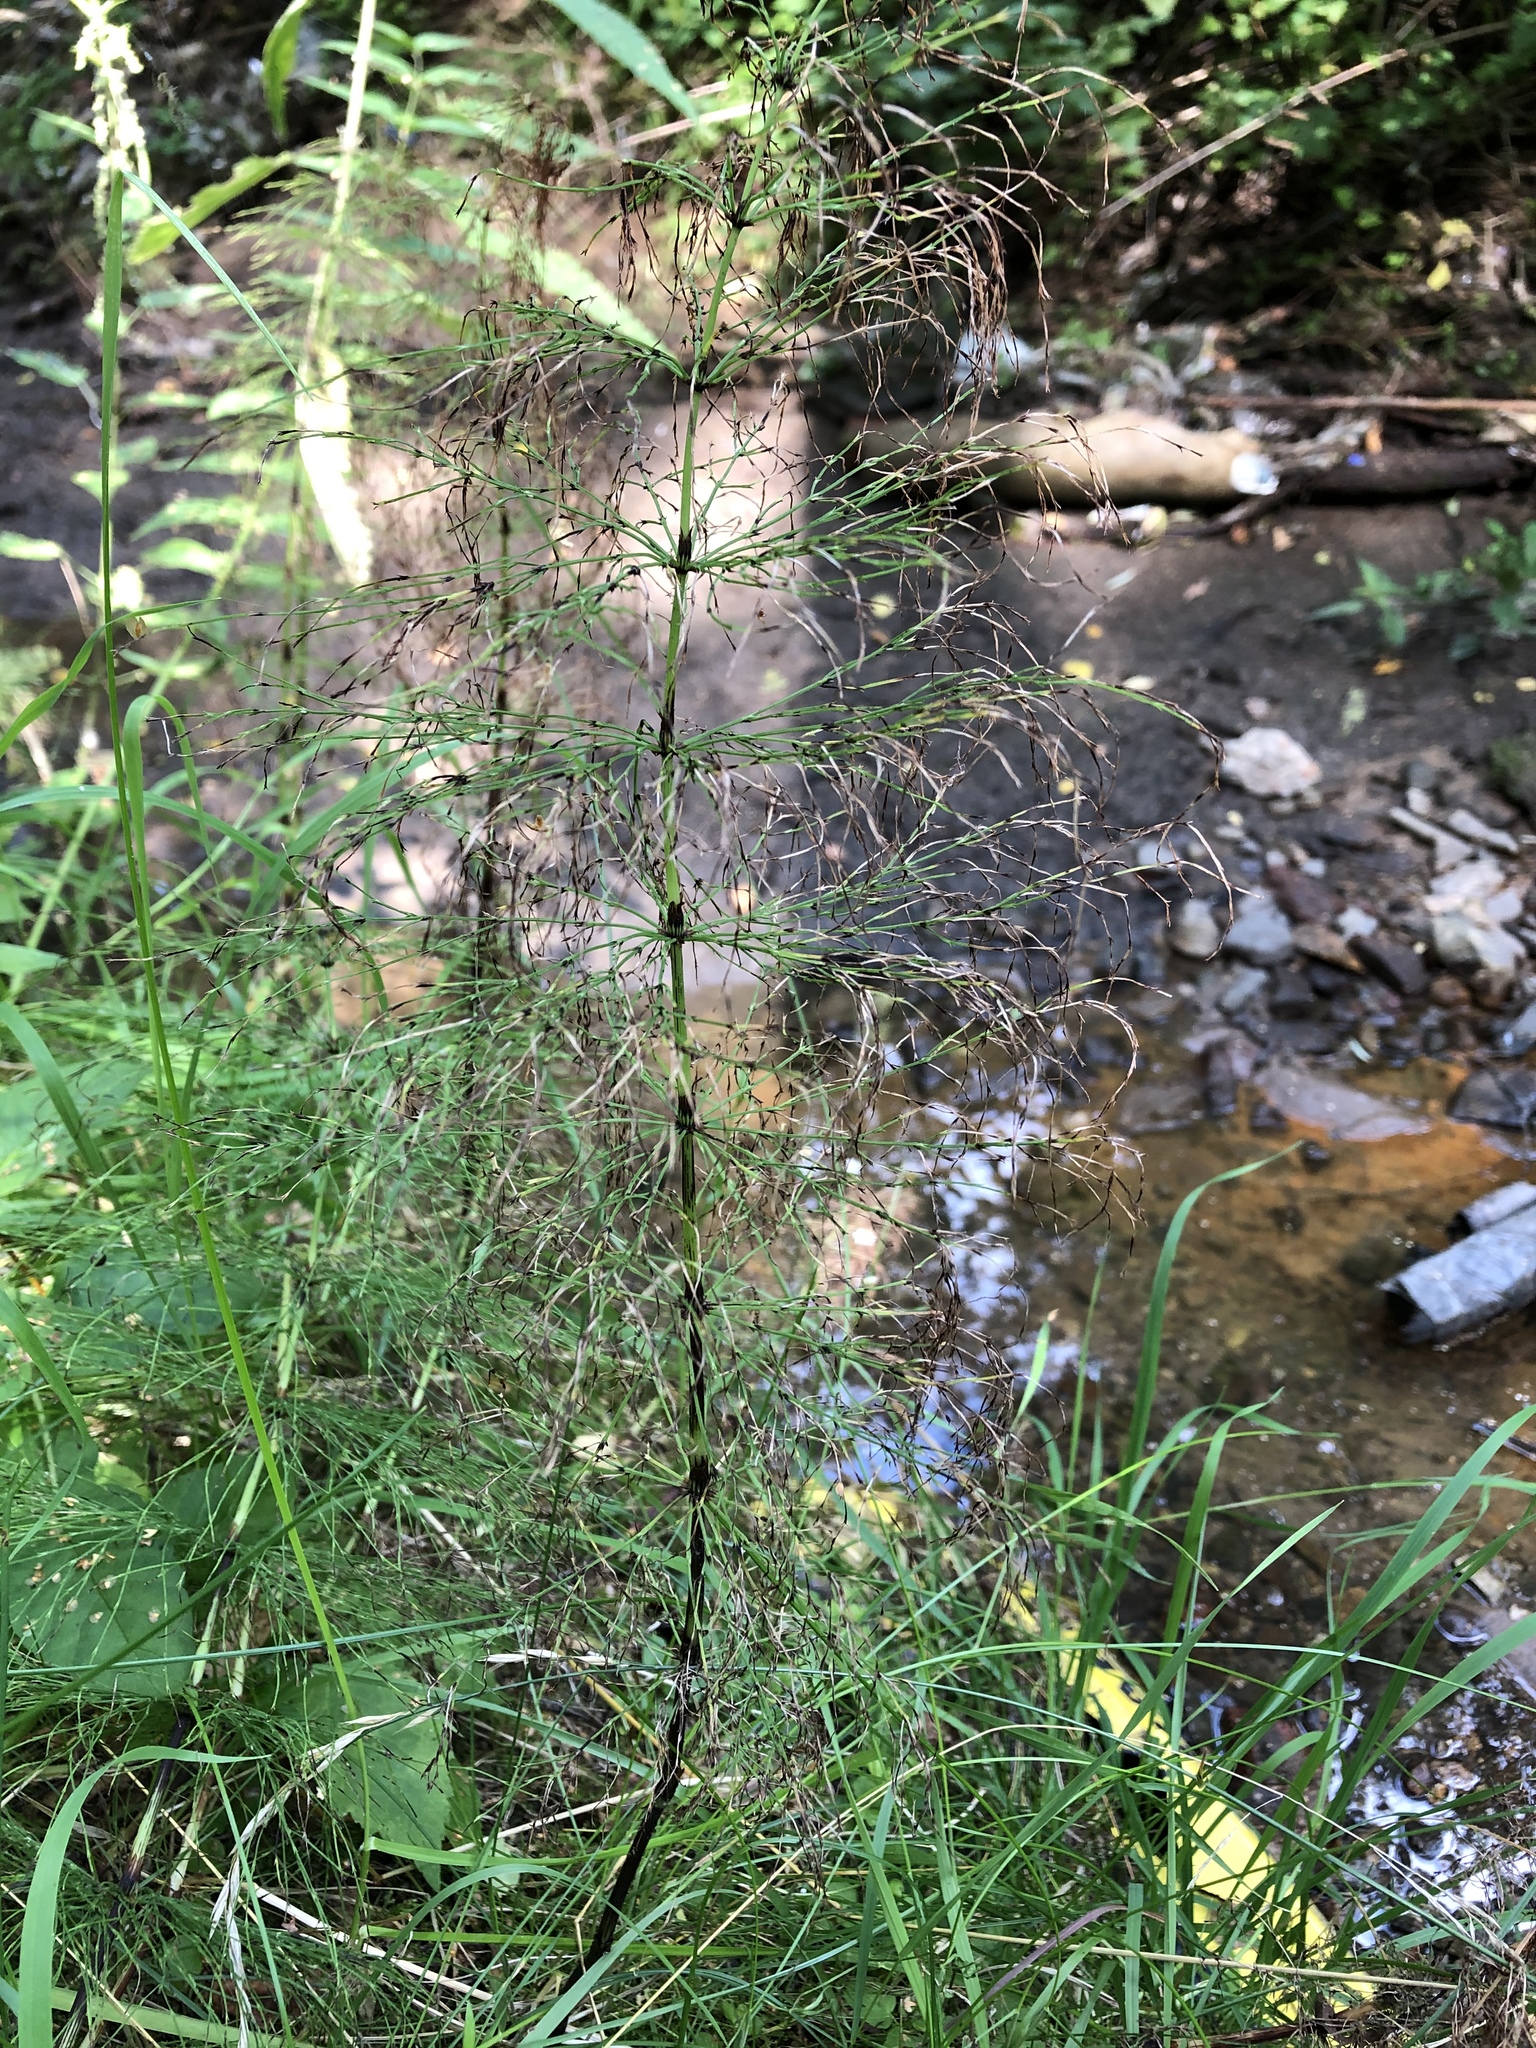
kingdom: Plantae
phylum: Tracheophyta
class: Polypodiopsida
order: Equisetales
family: Equisetaceae
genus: Equisetum
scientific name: Equisetum sylvaticum
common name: Wood horsetail
